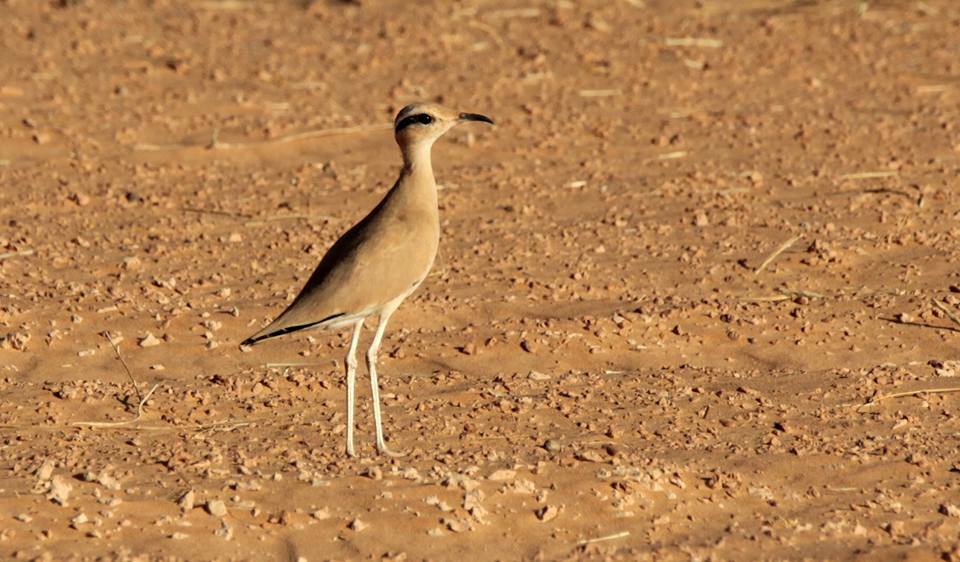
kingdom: Animalia
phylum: Chordata
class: Aves
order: Charadriiformes
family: Glareolidae
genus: Cursorius
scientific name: Cursorius cursor
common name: Cream-colored courser
